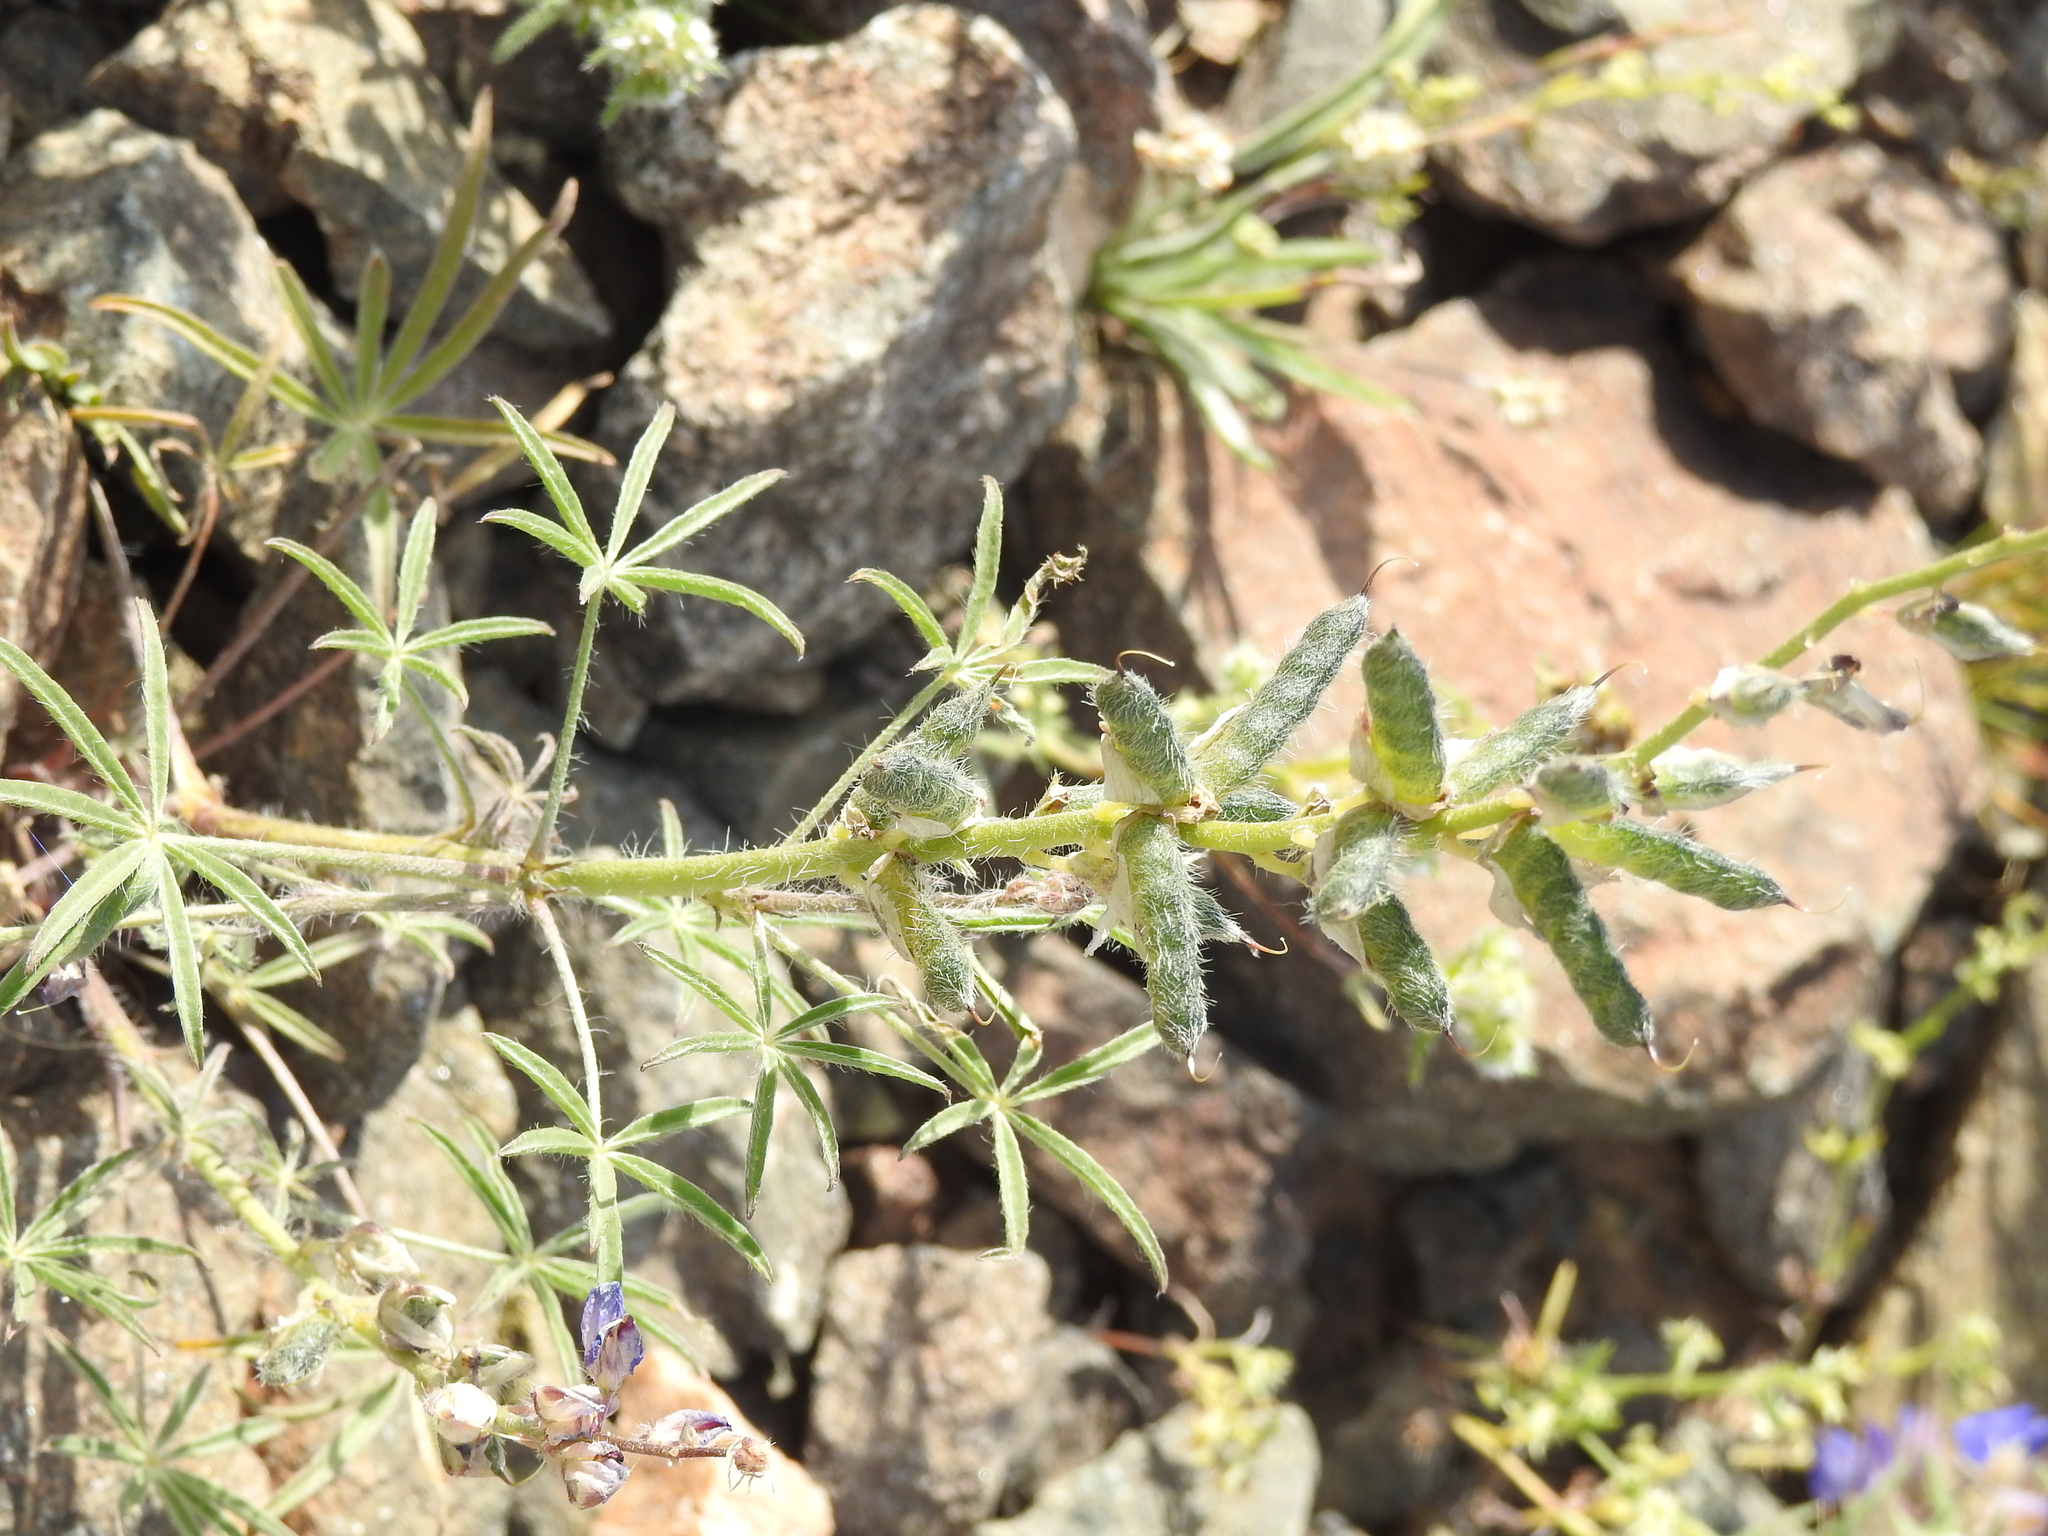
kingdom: Plantae
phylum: Tracheophyta
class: Magnoliopsida
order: Fabales
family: Fabaceae
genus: Lupinus
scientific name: Lupinus sparsiflorus
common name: Coulter's lupine
